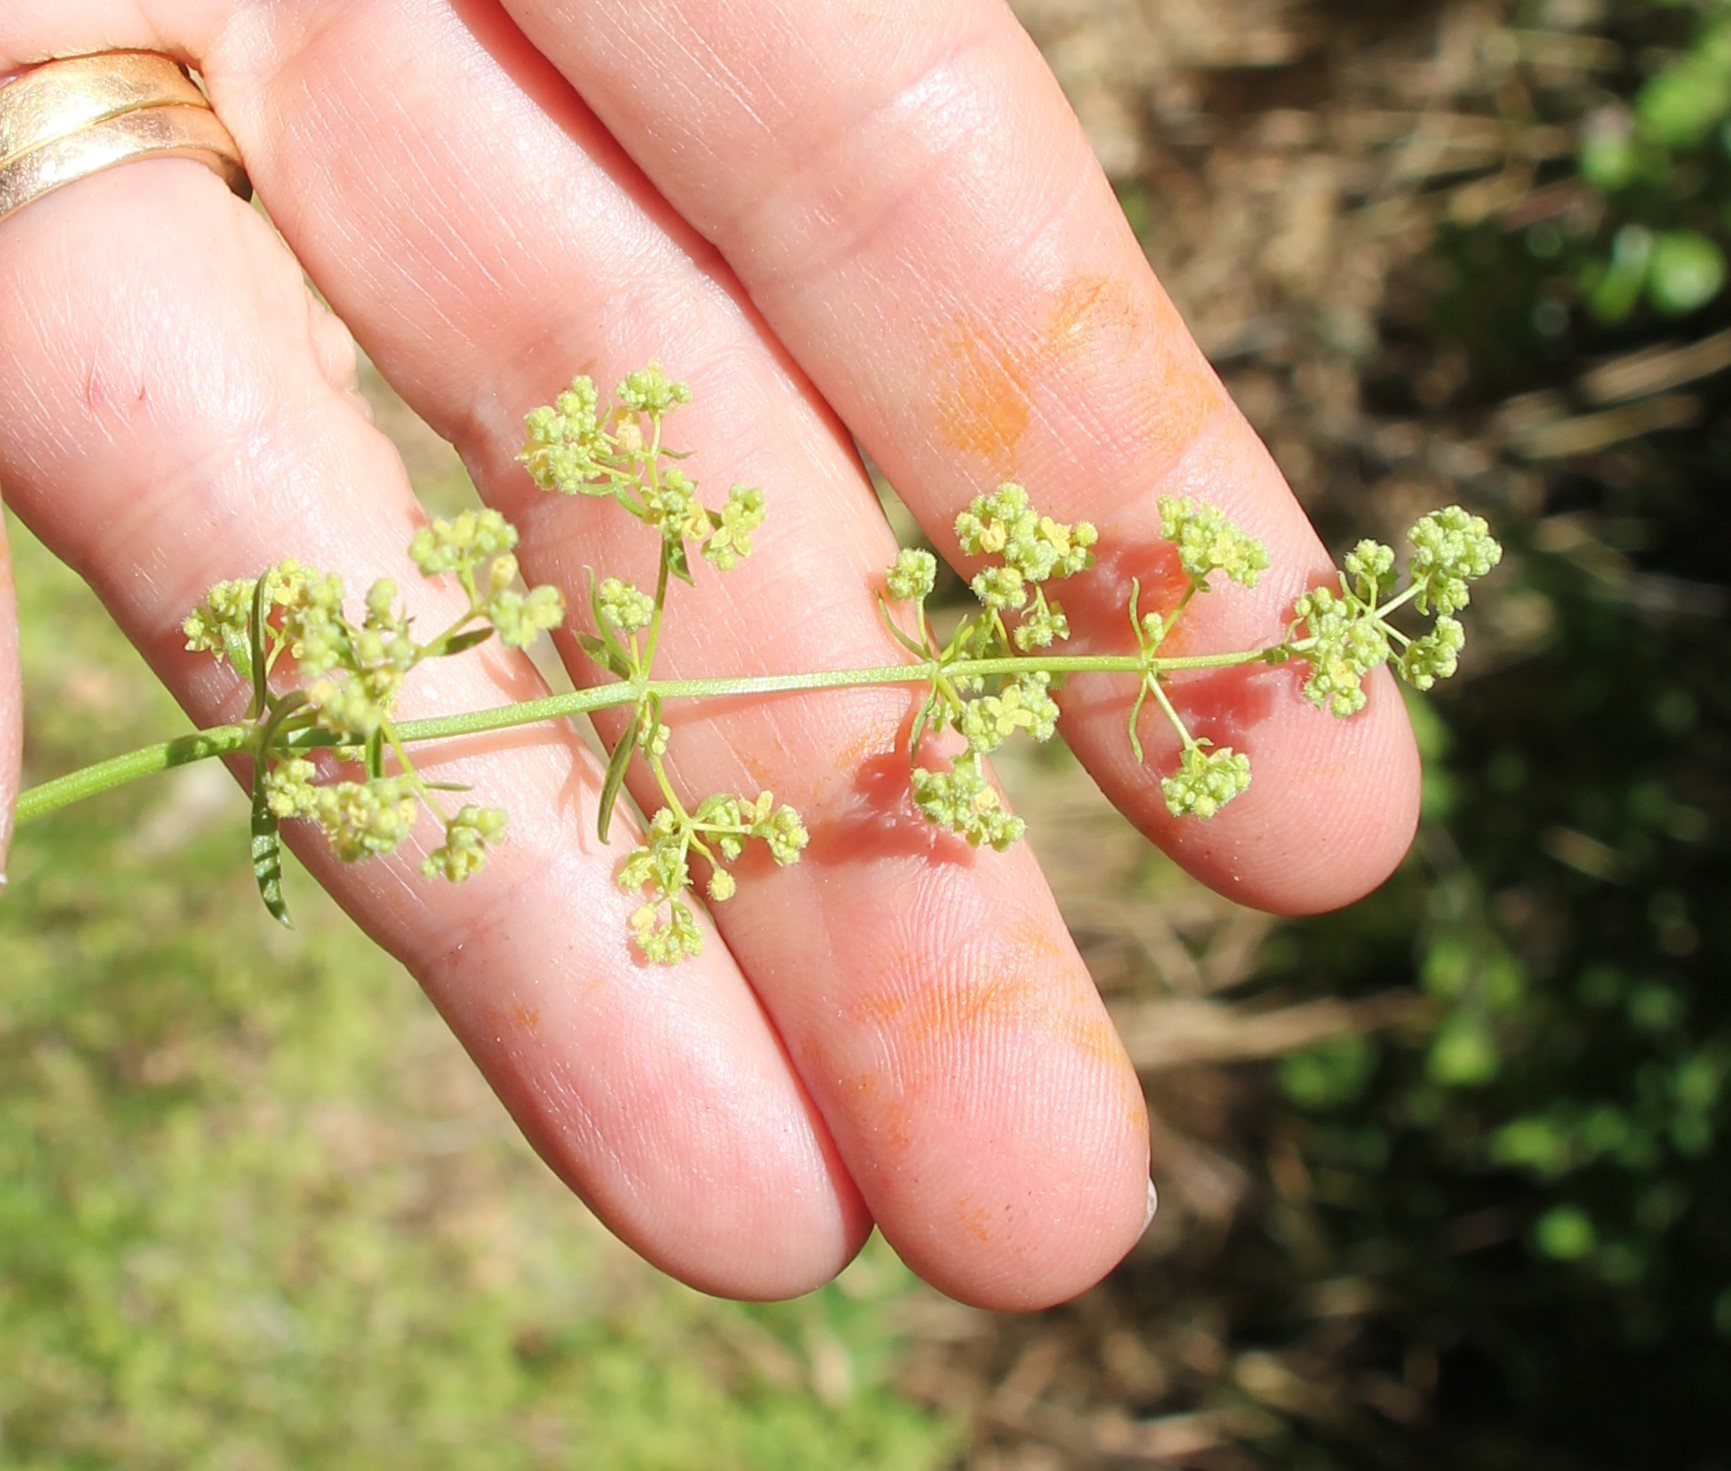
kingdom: Plantae
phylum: Tracheophyta
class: Magnoliopsida
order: Gentianales
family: Rubiaceae
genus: Galium
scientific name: Galium angustifolium
